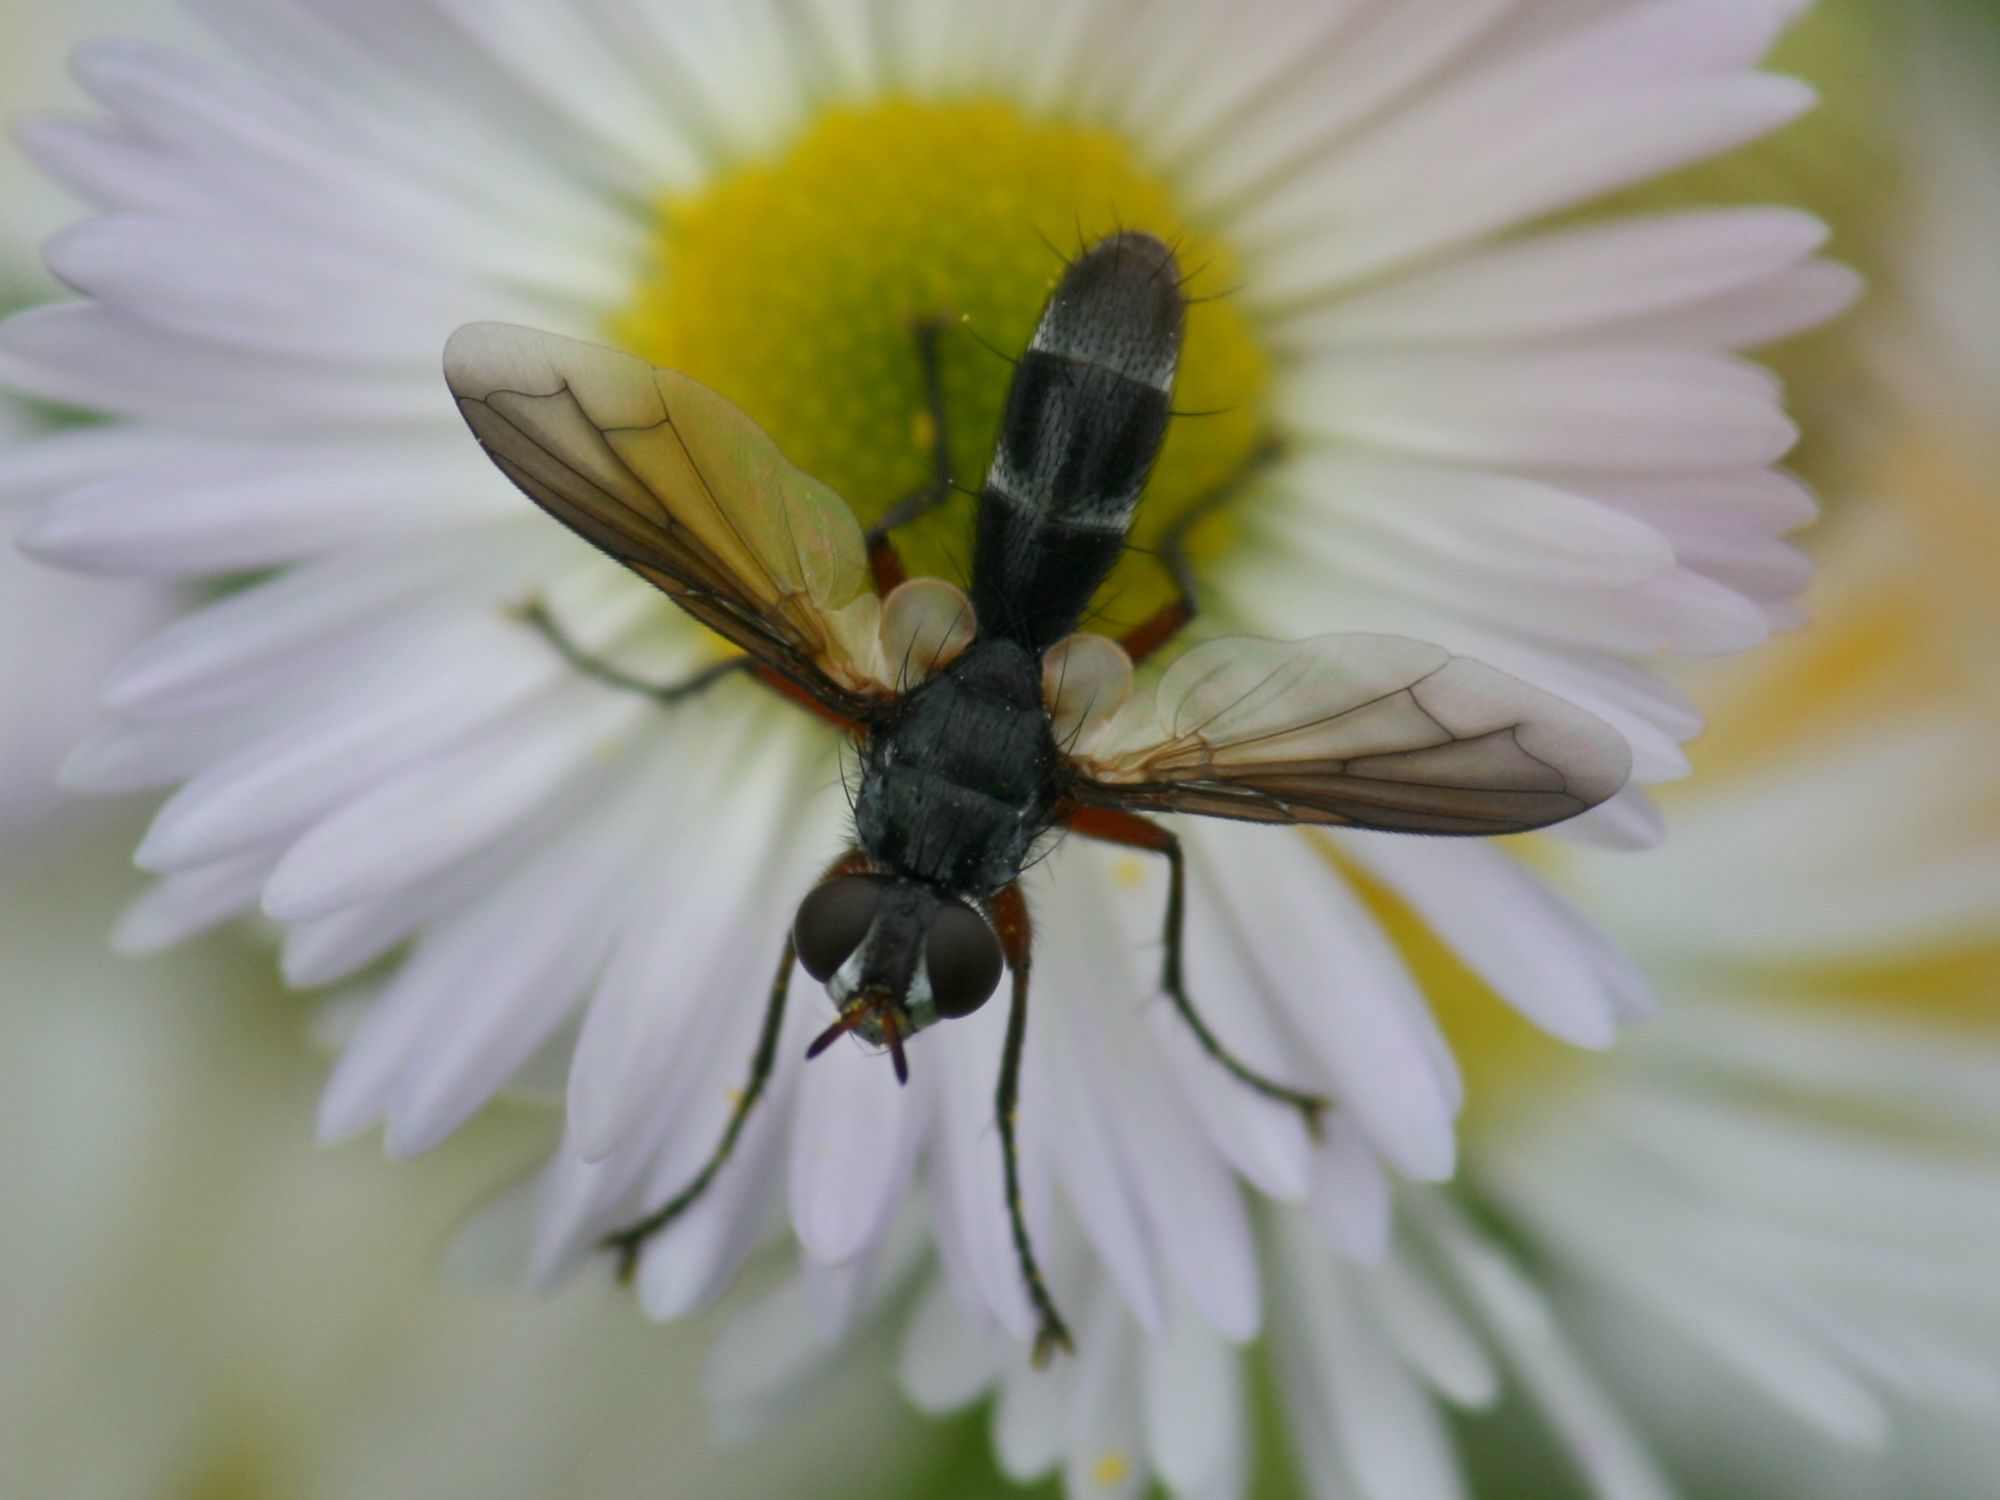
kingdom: Animalia
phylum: Arthropoda
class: Insecta
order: Diptera
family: Tachinidae
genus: Cylindromyia
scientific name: Cylindromyia rufipes
